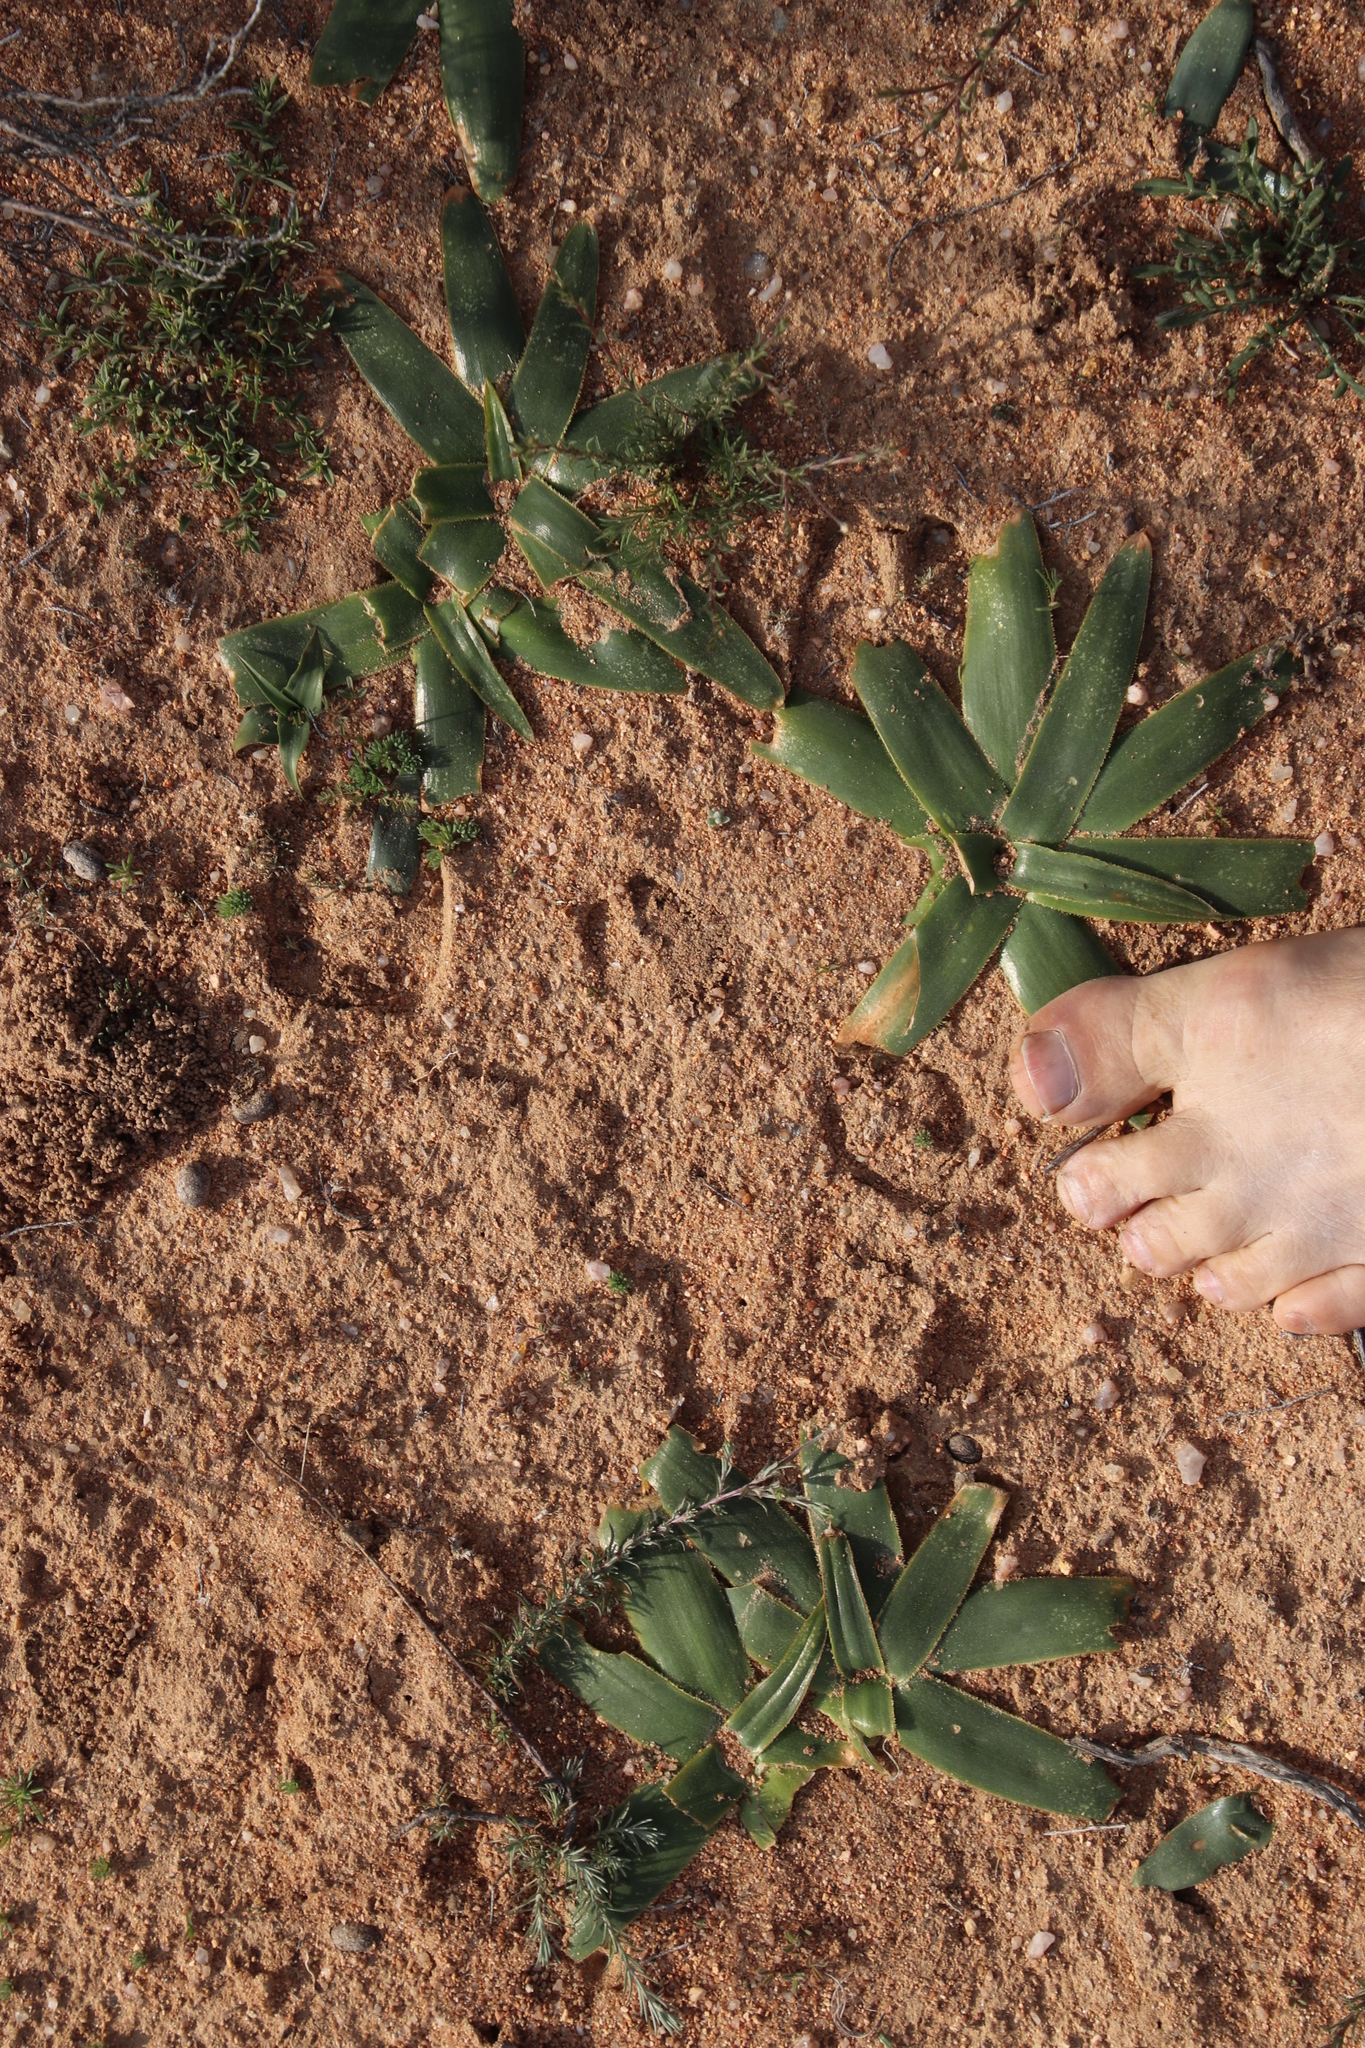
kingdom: Plantae
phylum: Tracheophyta
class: Liliopsida
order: Asparagales
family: Asparagaceae
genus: Albuca
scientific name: Albuca secunda
